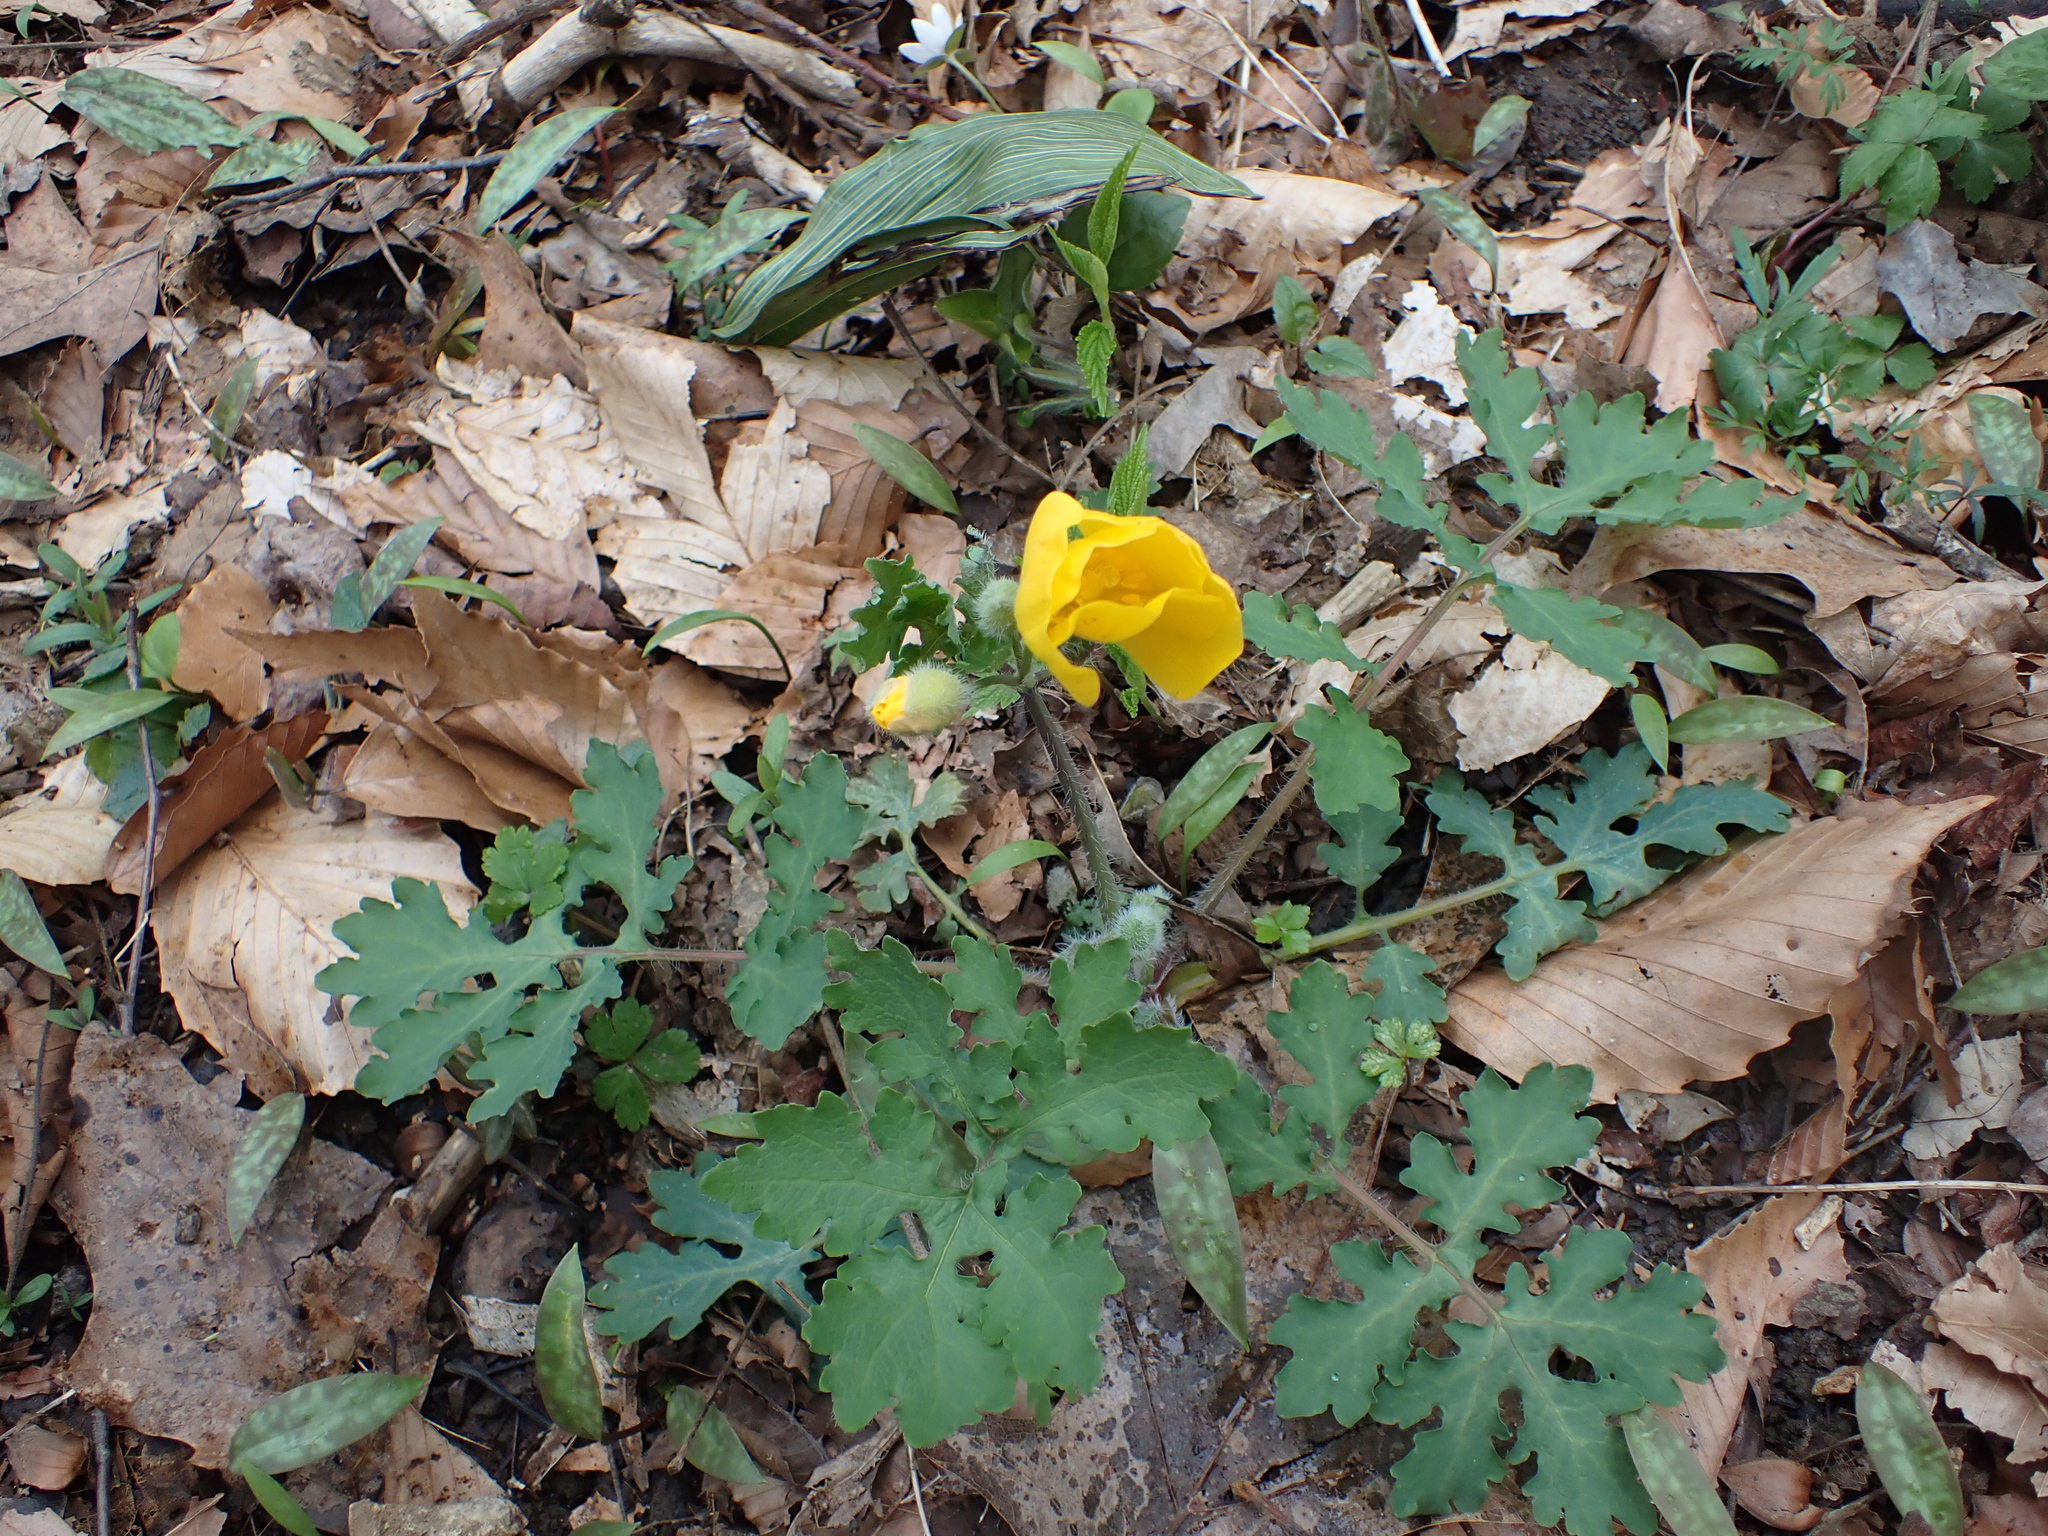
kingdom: Plantae
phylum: Tracheophyta
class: Magnoliopsida
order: Ranunculales
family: Papaveraceae
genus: Stylophorum
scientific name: Stylophorum diphyllum
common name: Celandine poppy
